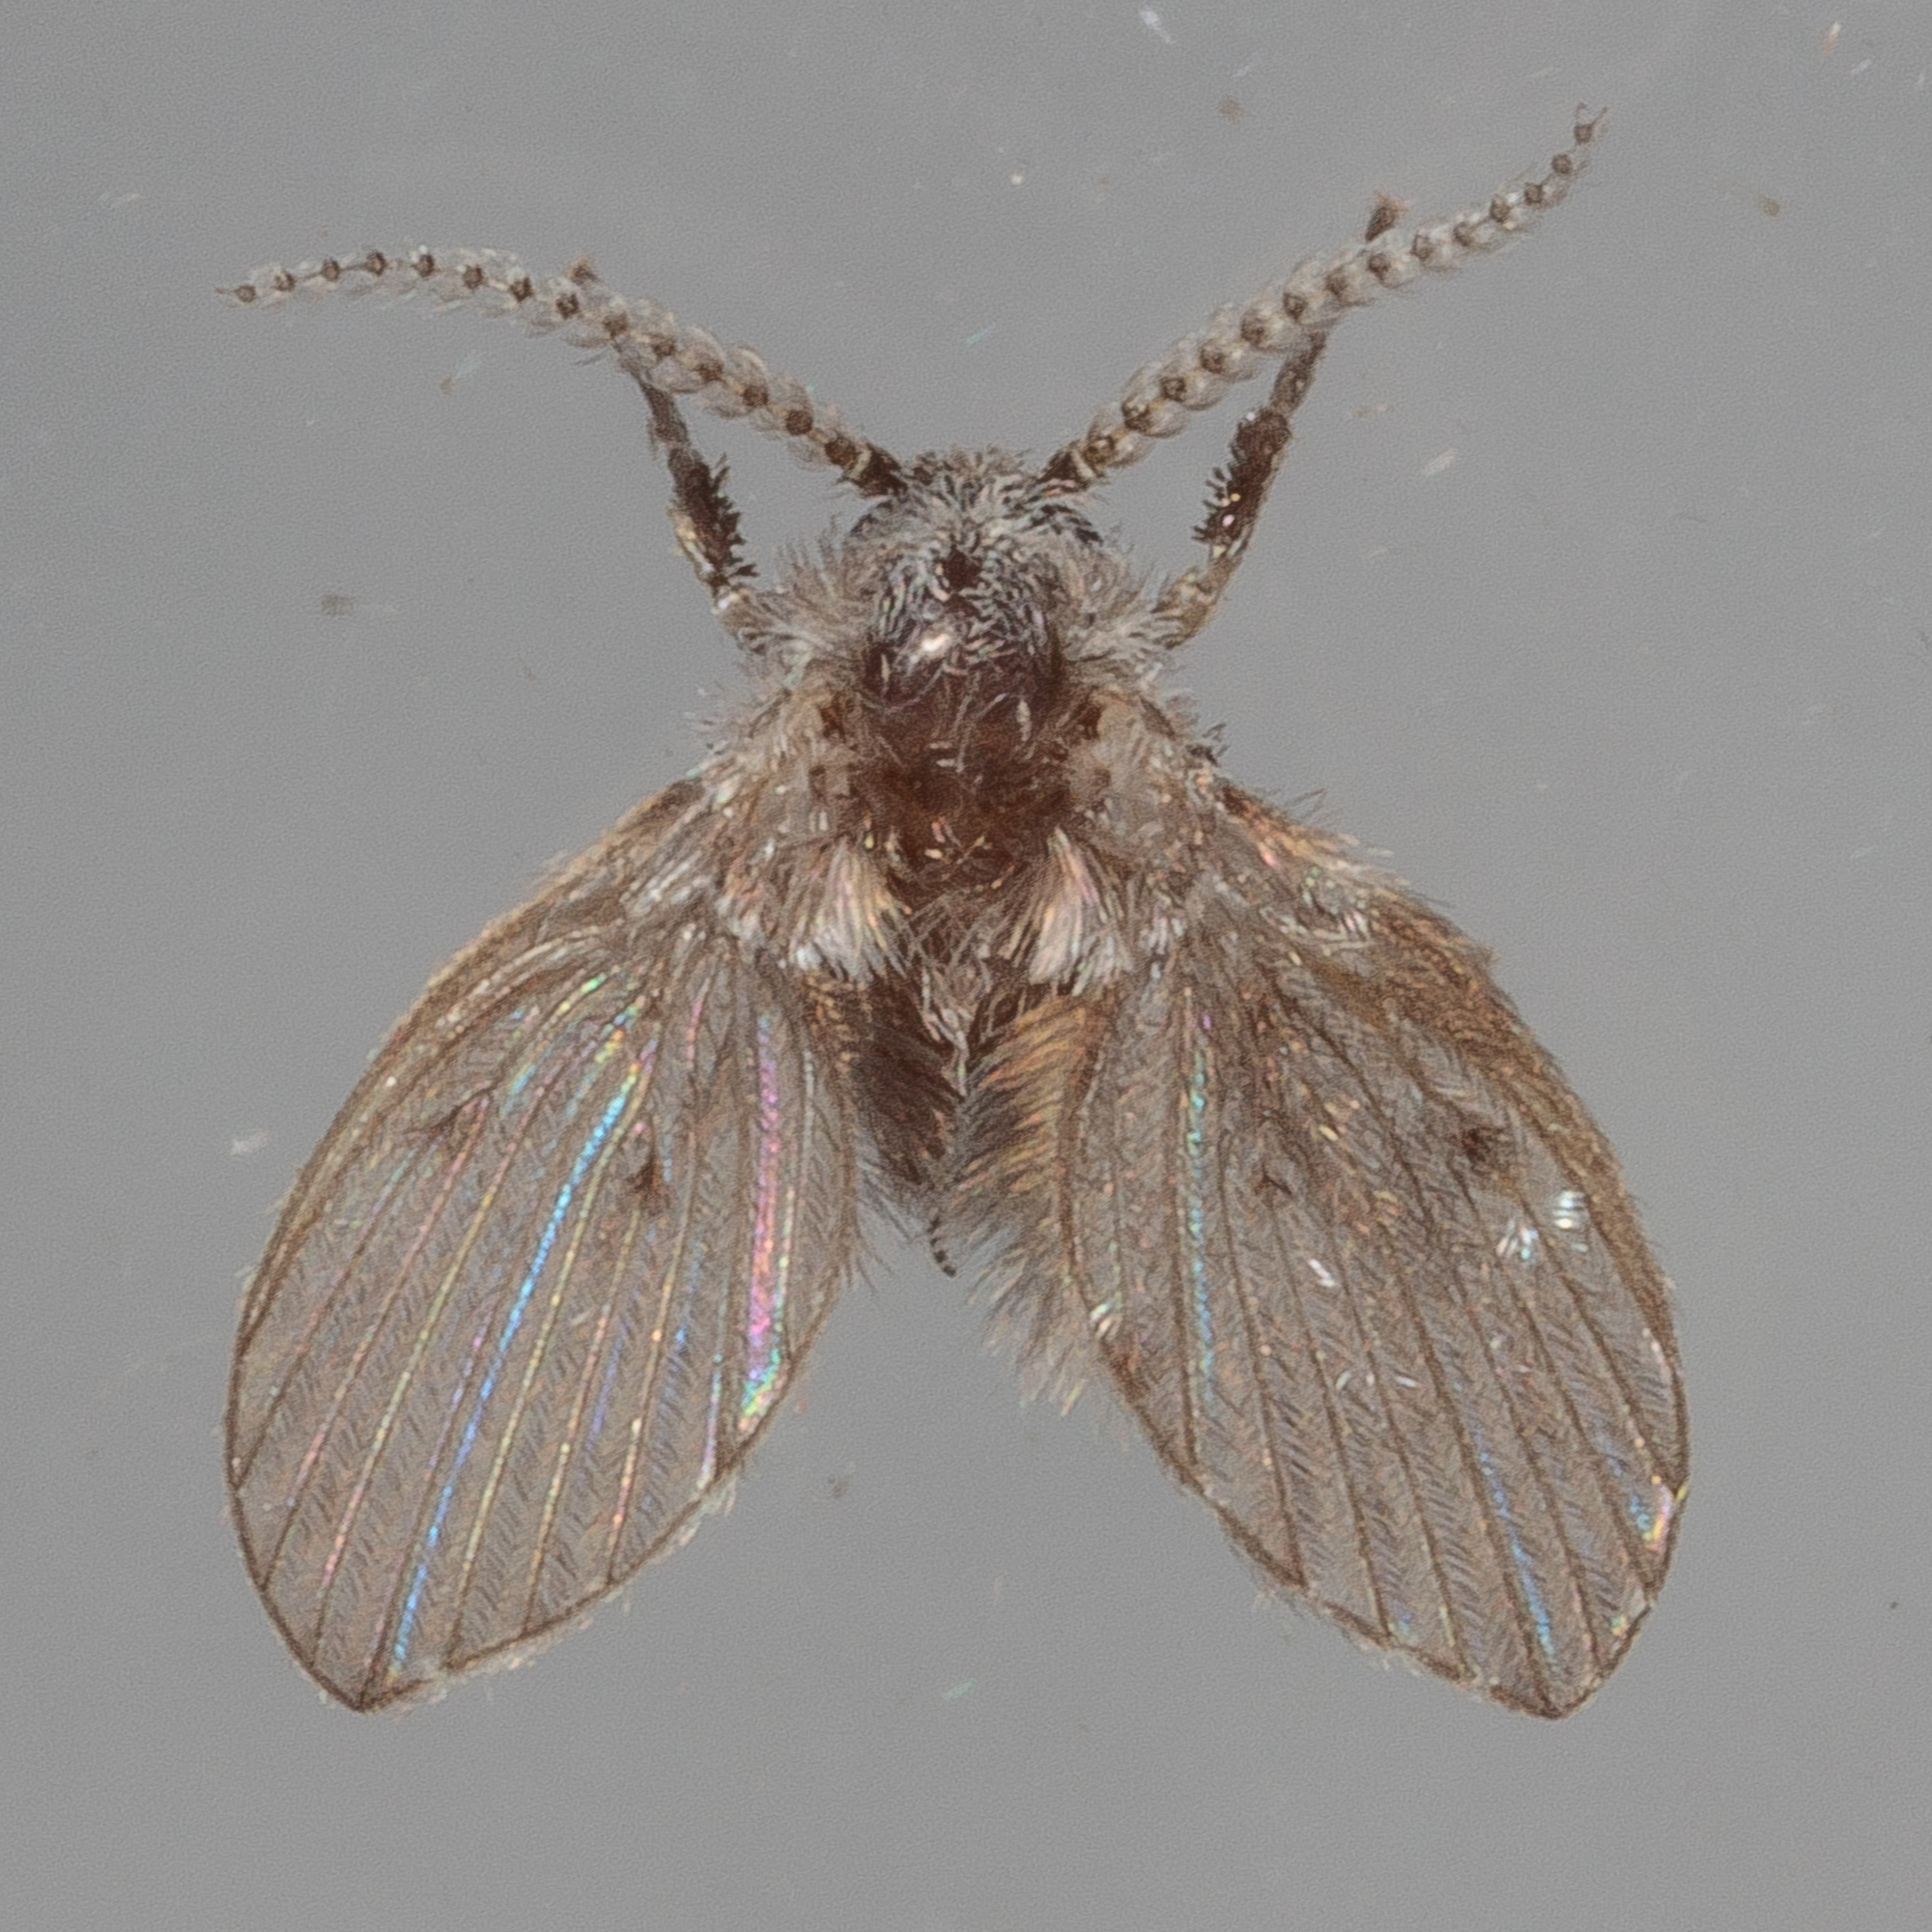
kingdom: Animalia
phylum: Arthropoda
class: Insecta
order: Diptera
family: Psychodidae
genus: Clogmia
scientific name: Clogmia albipunctatus
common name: White-spotted moth fly
